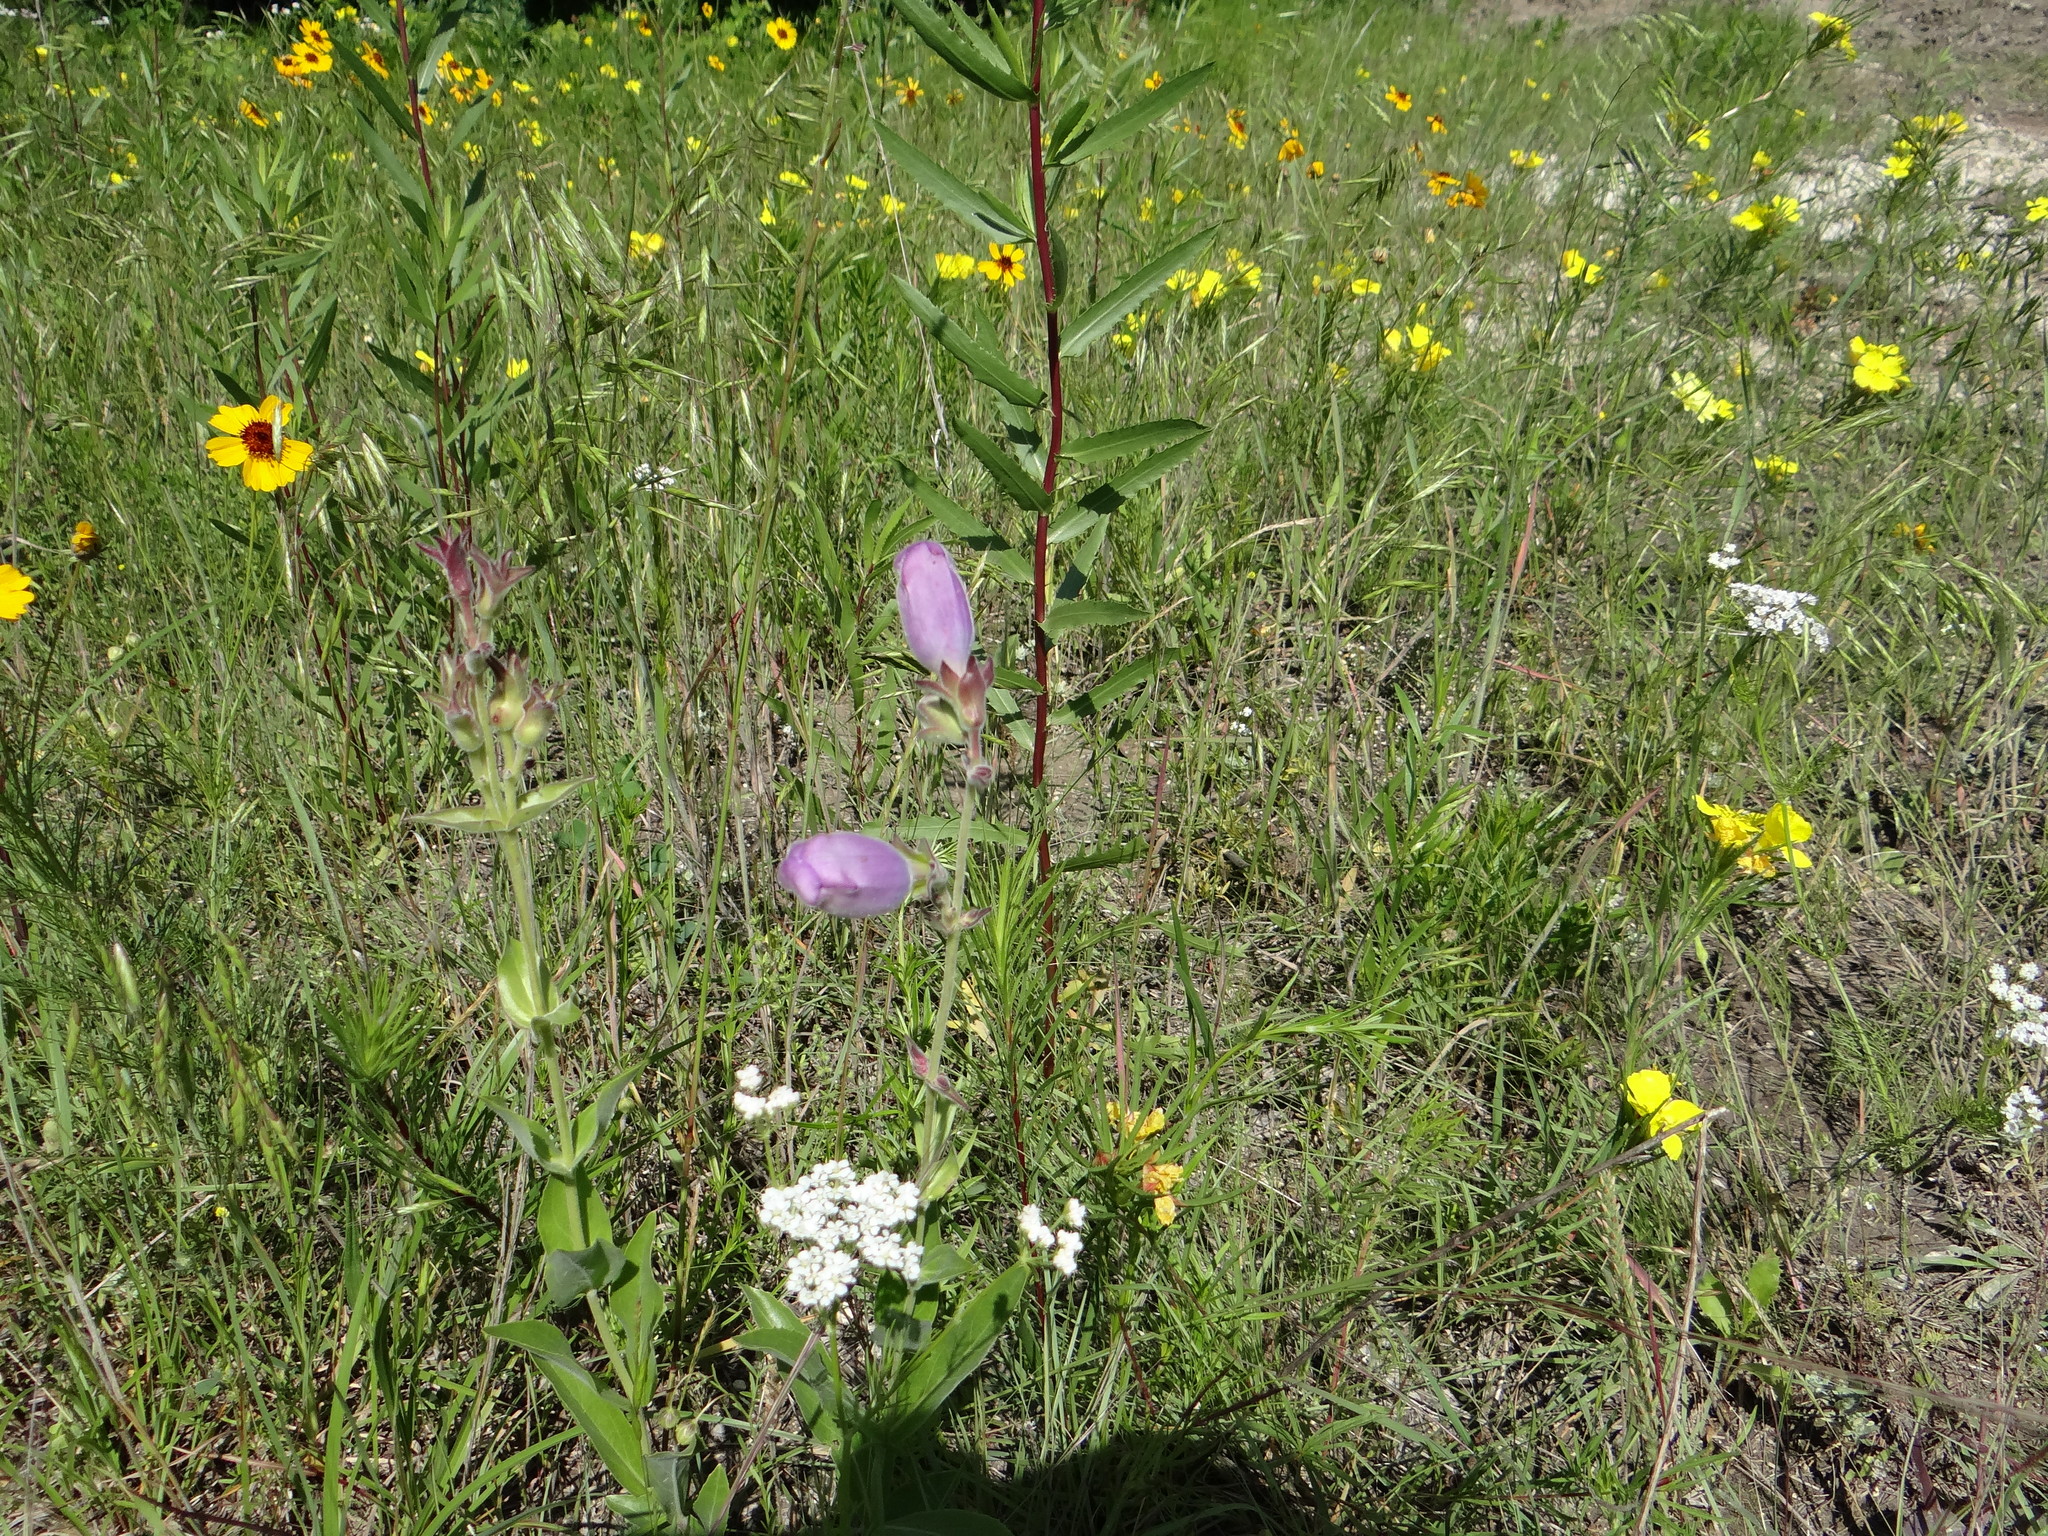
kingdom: Plantae
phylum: Tracheophyta
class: Magnoliopsida
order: Lamiales
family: Plantaginaceae
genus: Penstemon
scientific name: Penstemon cobaea
